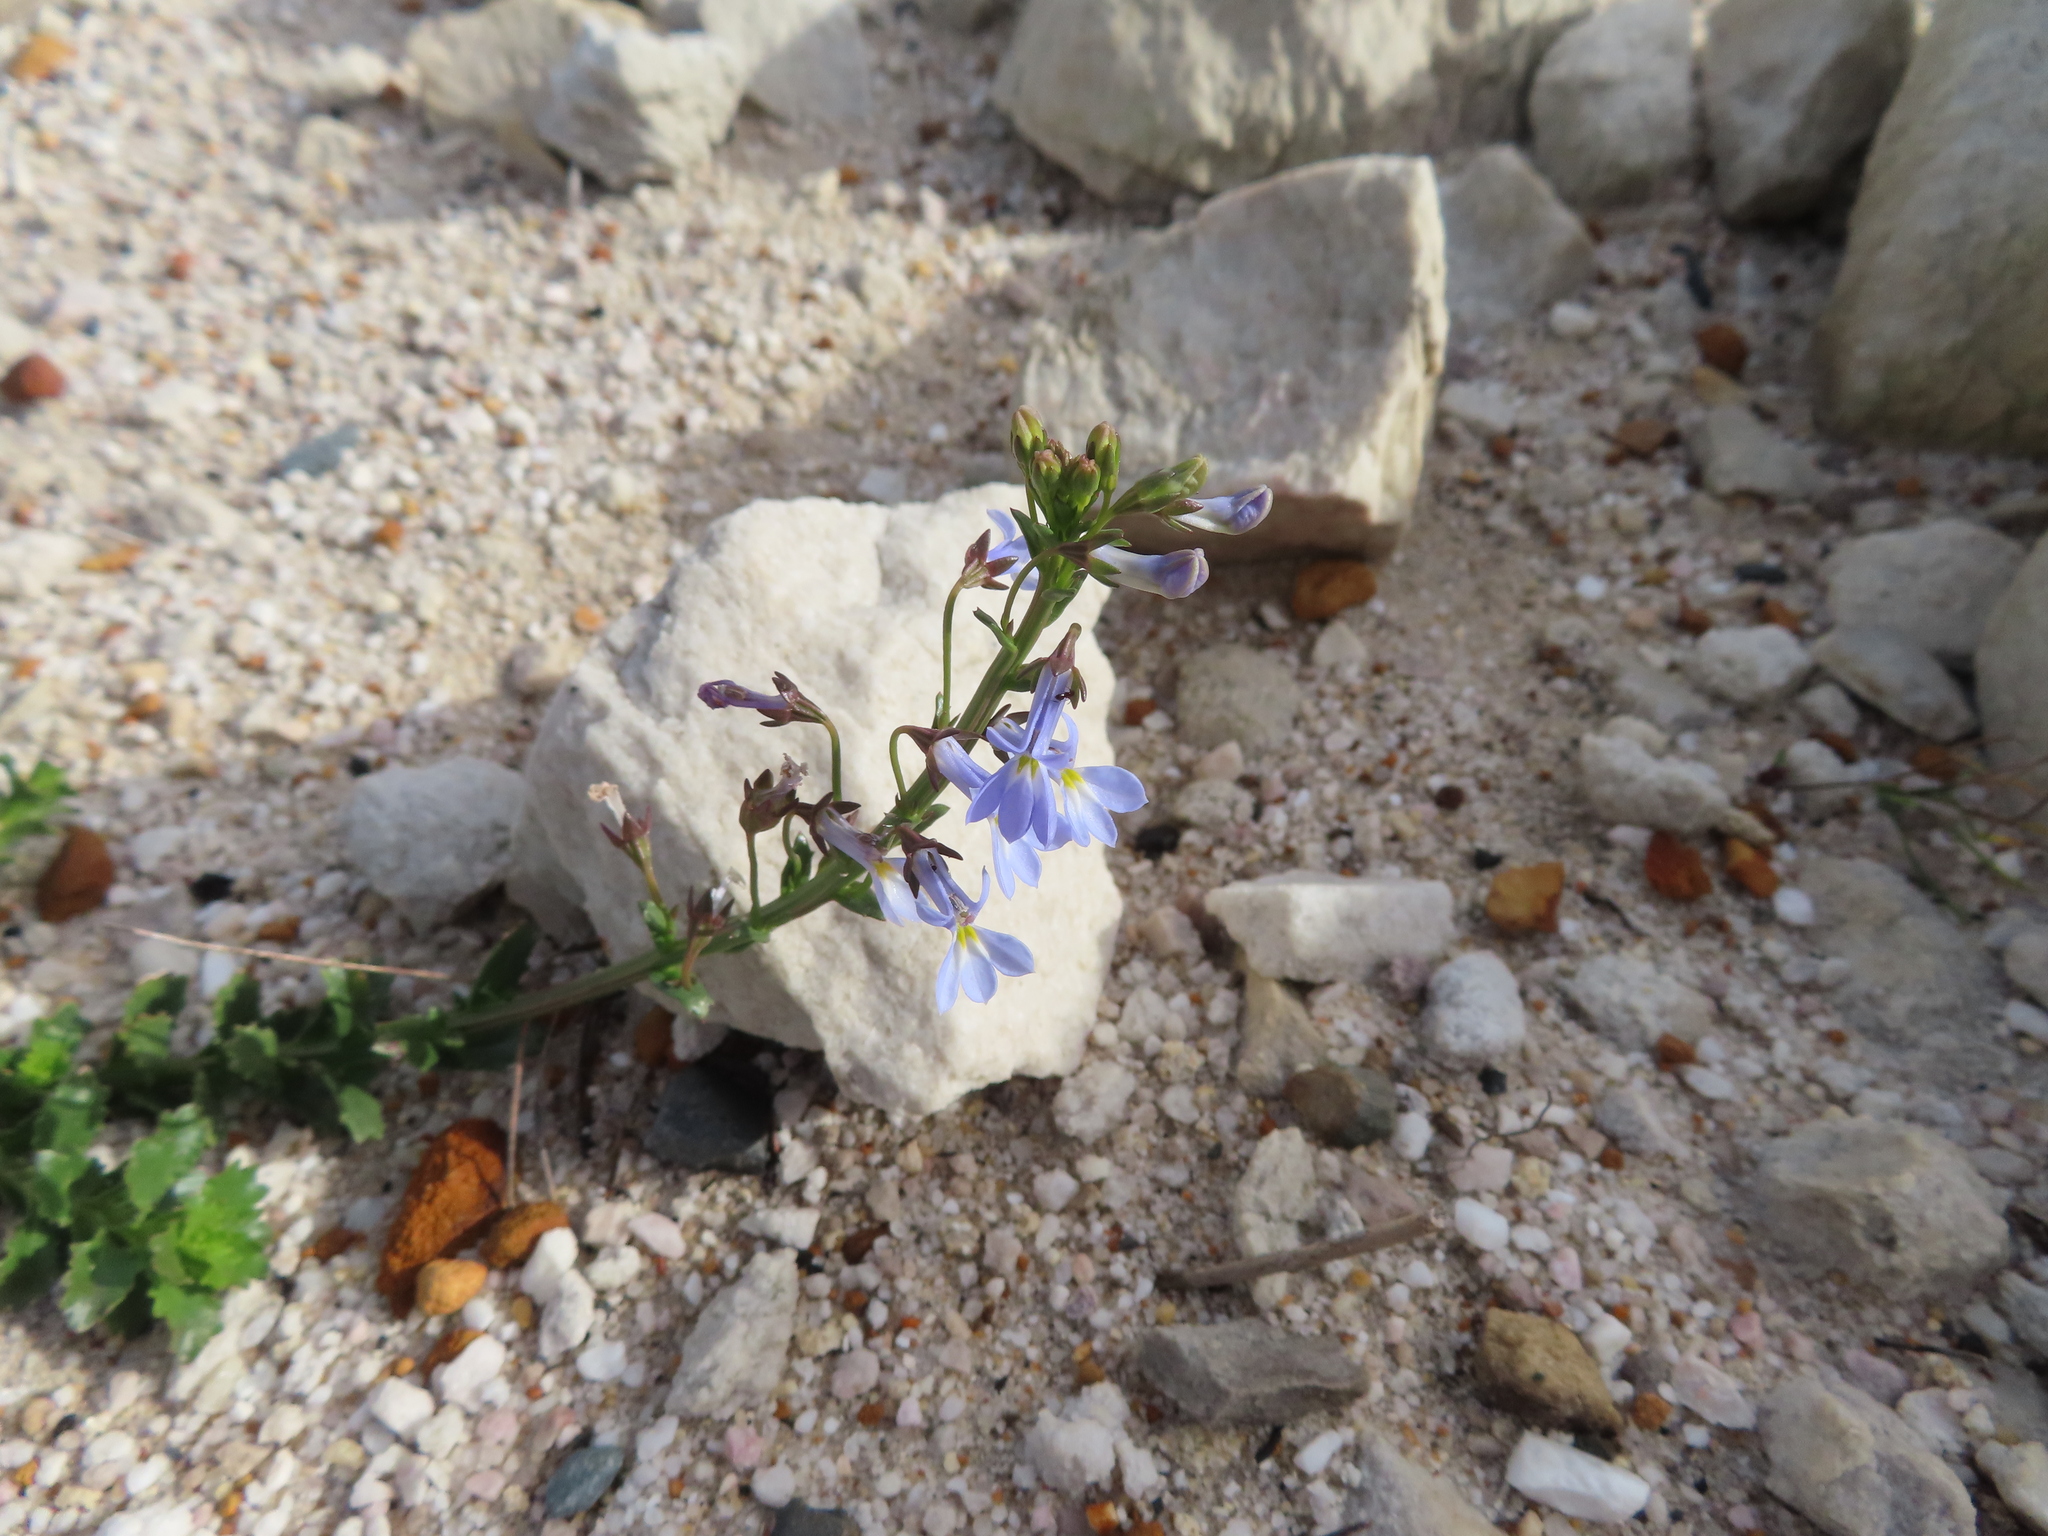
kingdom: Plantae
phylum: Tracheophyta
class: Magnoliopsida
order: Asterales
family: Campanulaceae
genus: Lobelia
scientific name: Lobelia comosa
